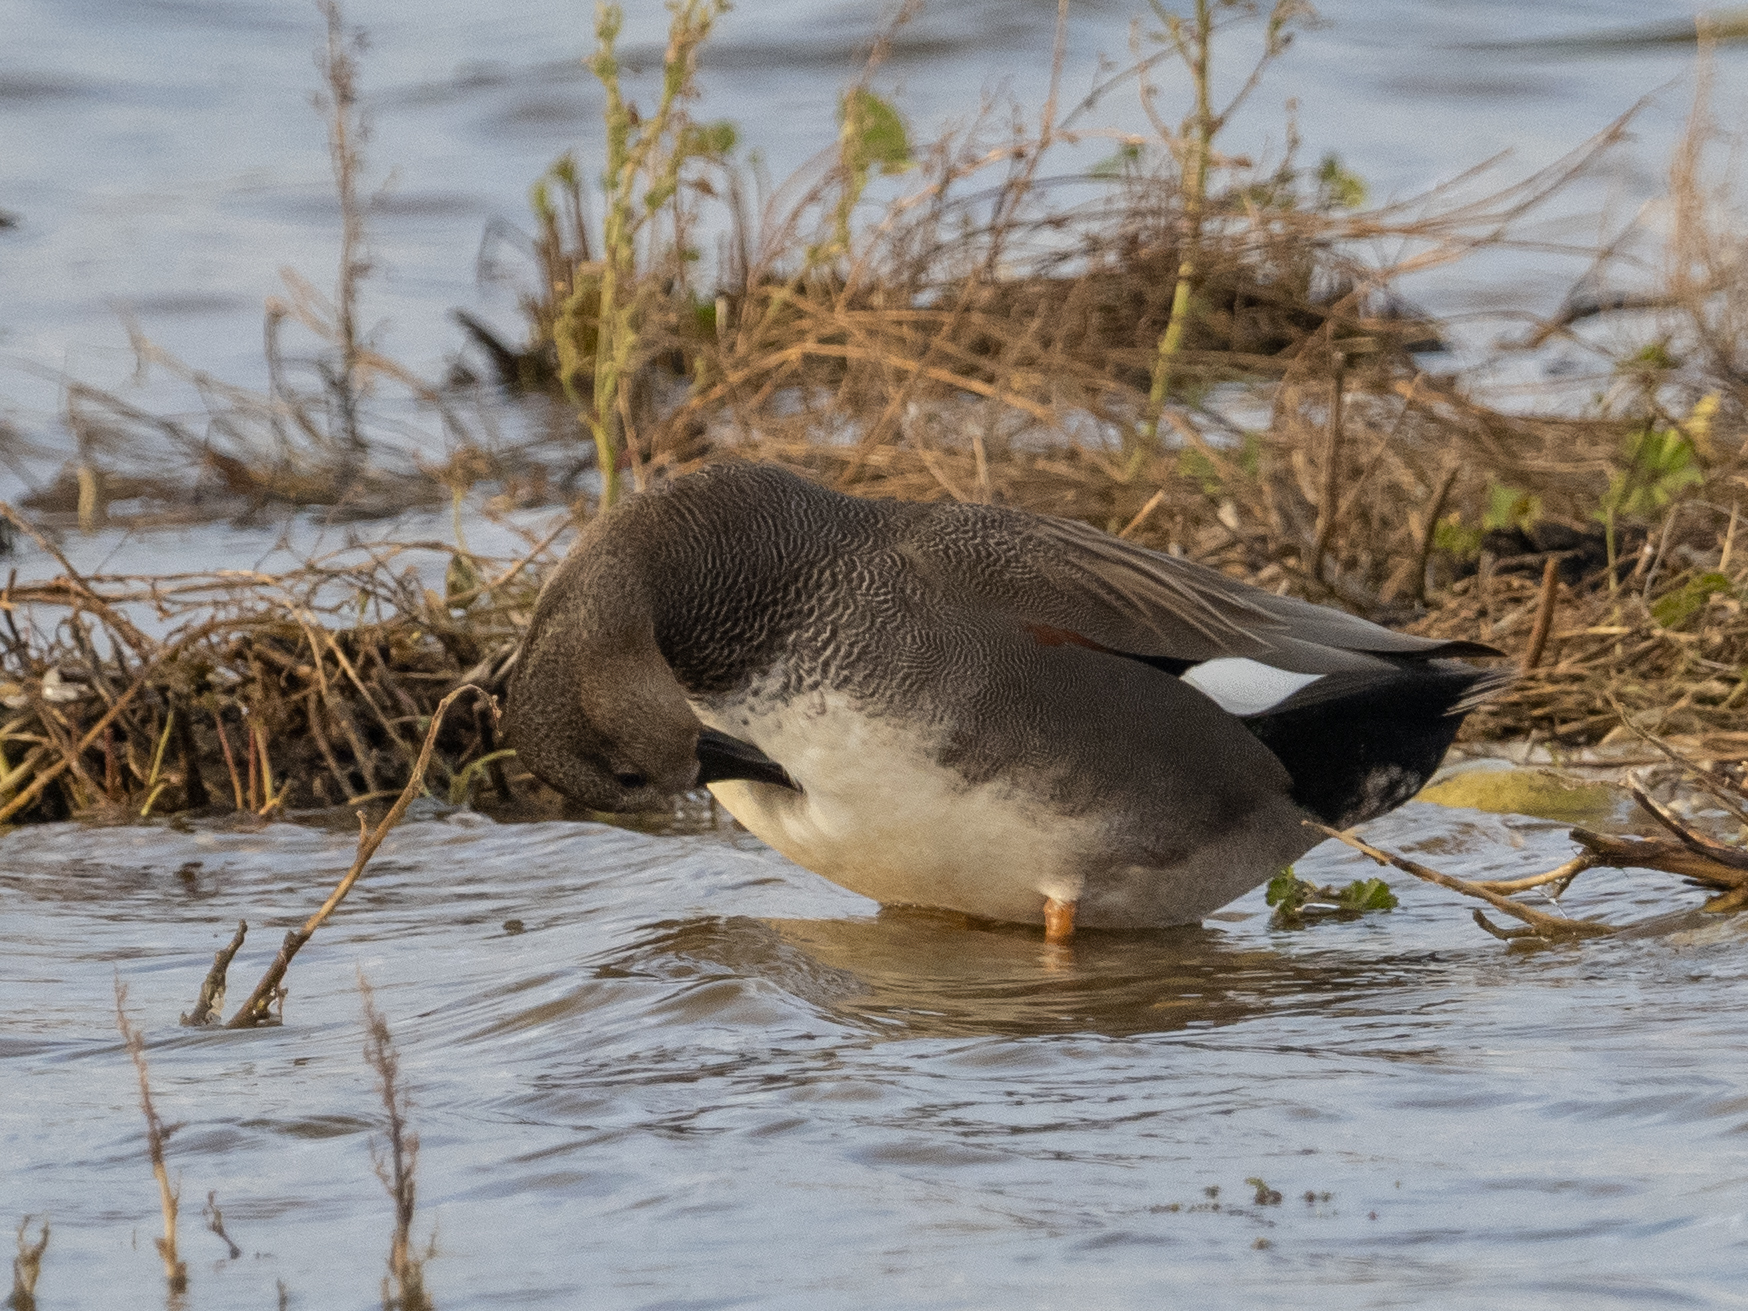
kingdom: Animalia
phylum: Chordata
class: Aves
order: Anseriformes
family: Anatidae
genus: Mareca
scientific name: Mareca strepera
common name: Gadwall
